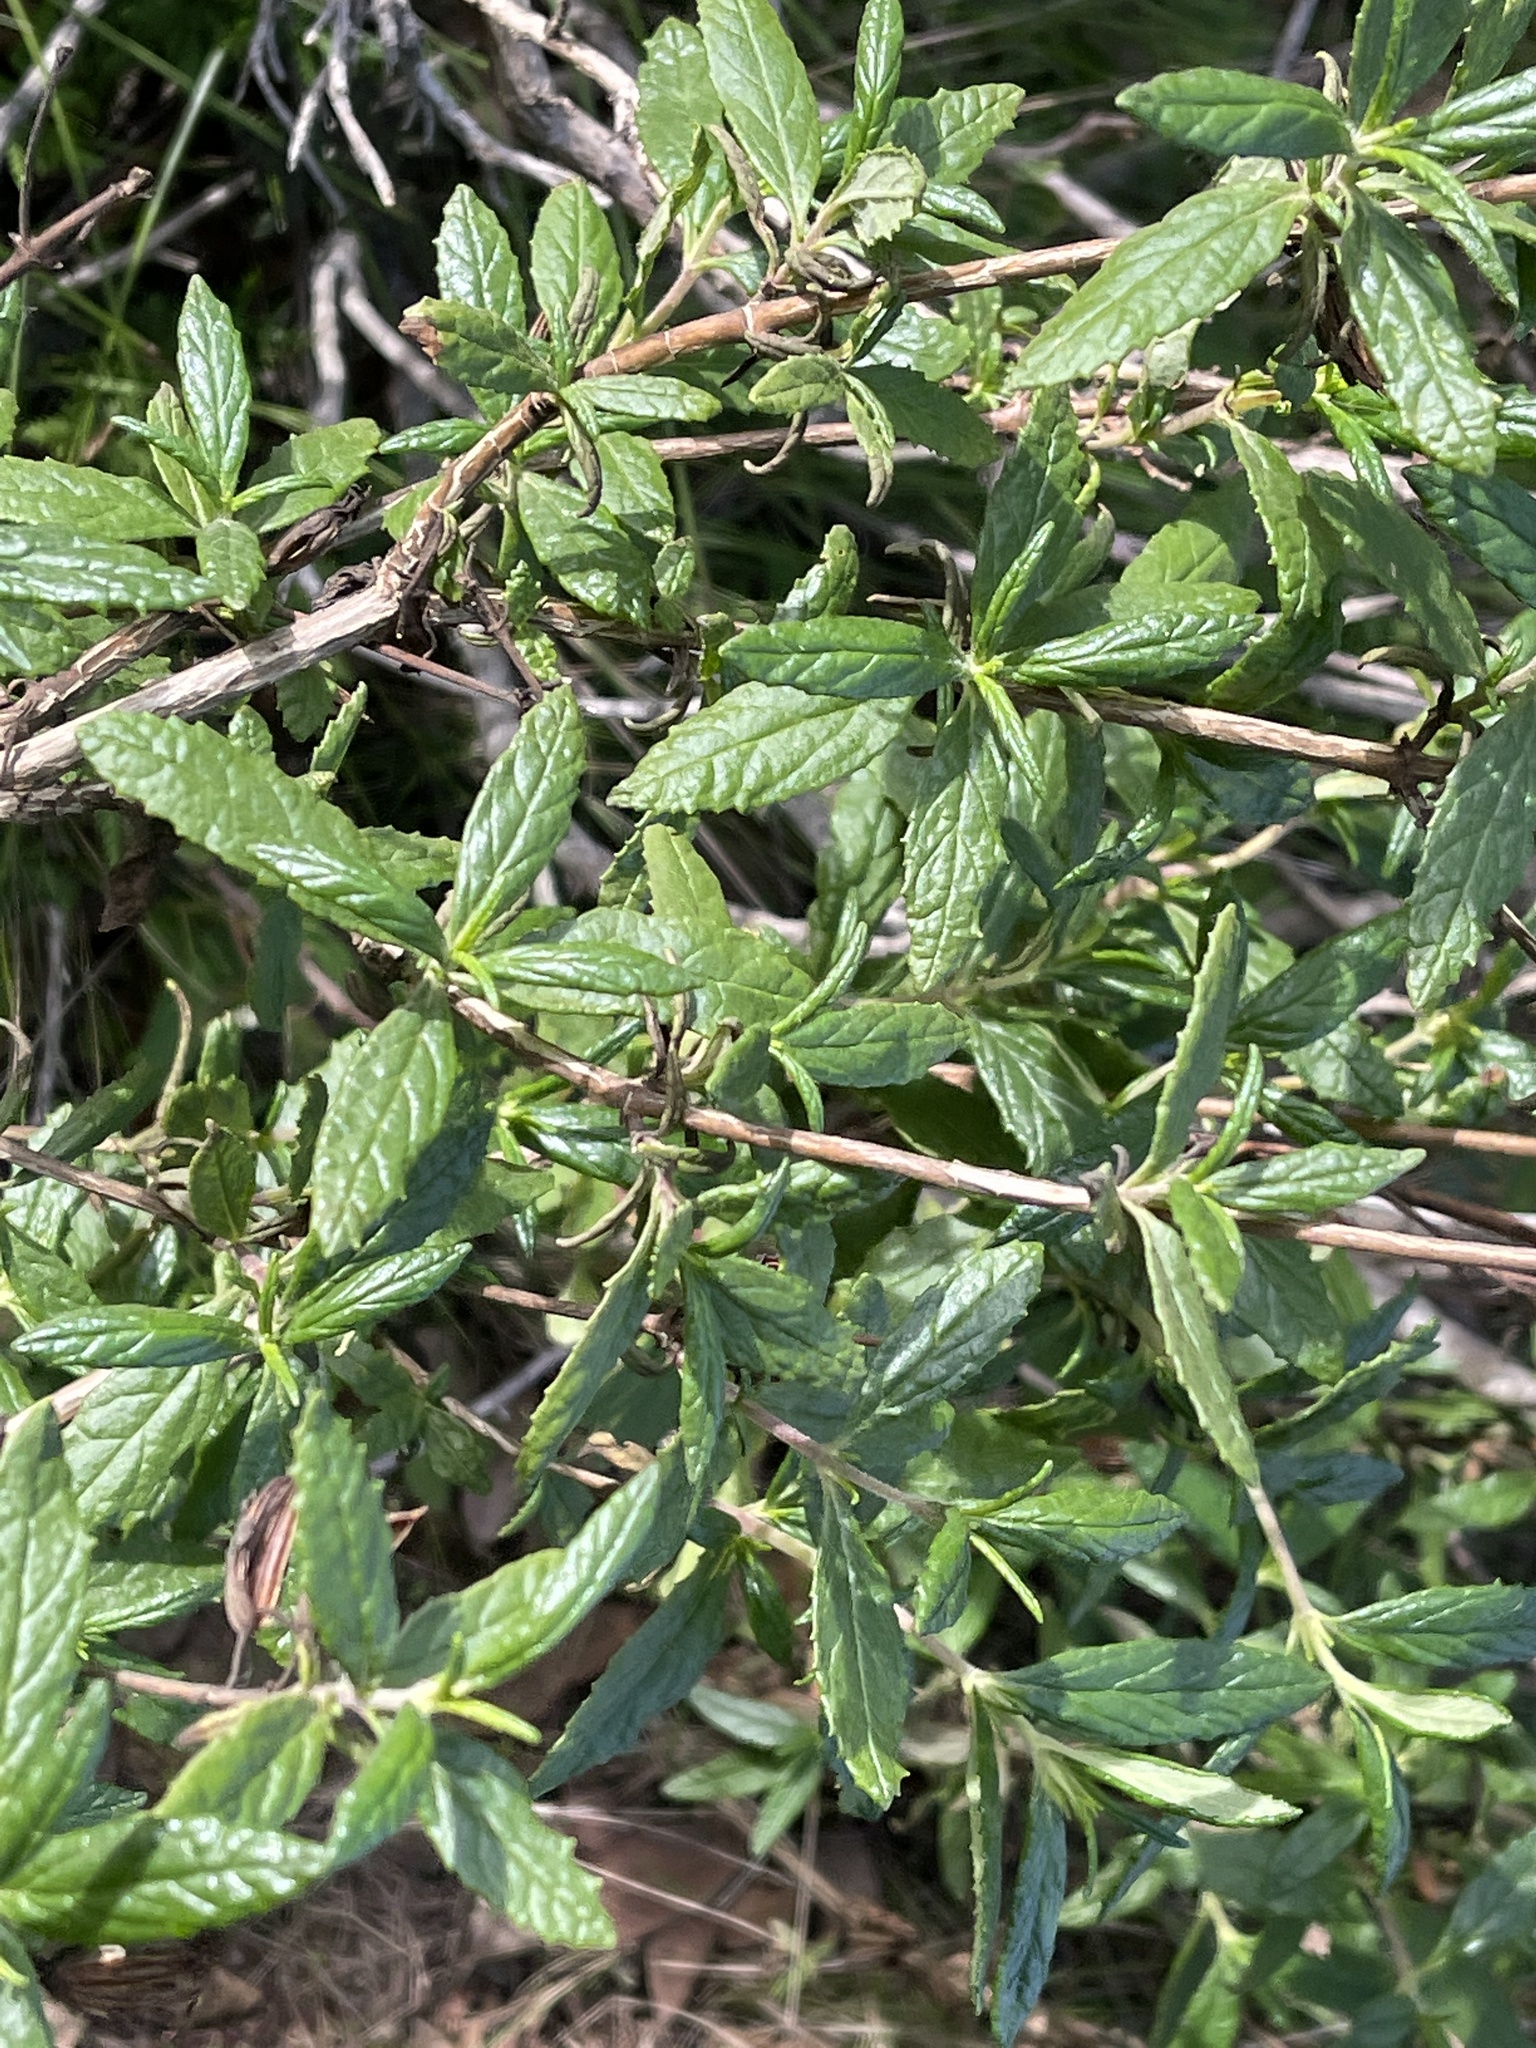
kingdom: Plantae
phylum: Tracheophyta
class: Magnoliopsida
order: Lamiales
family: Phrymaceae
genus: Diplacus
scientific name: Diplacus aurantiacus
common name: Bush monkey-flower
